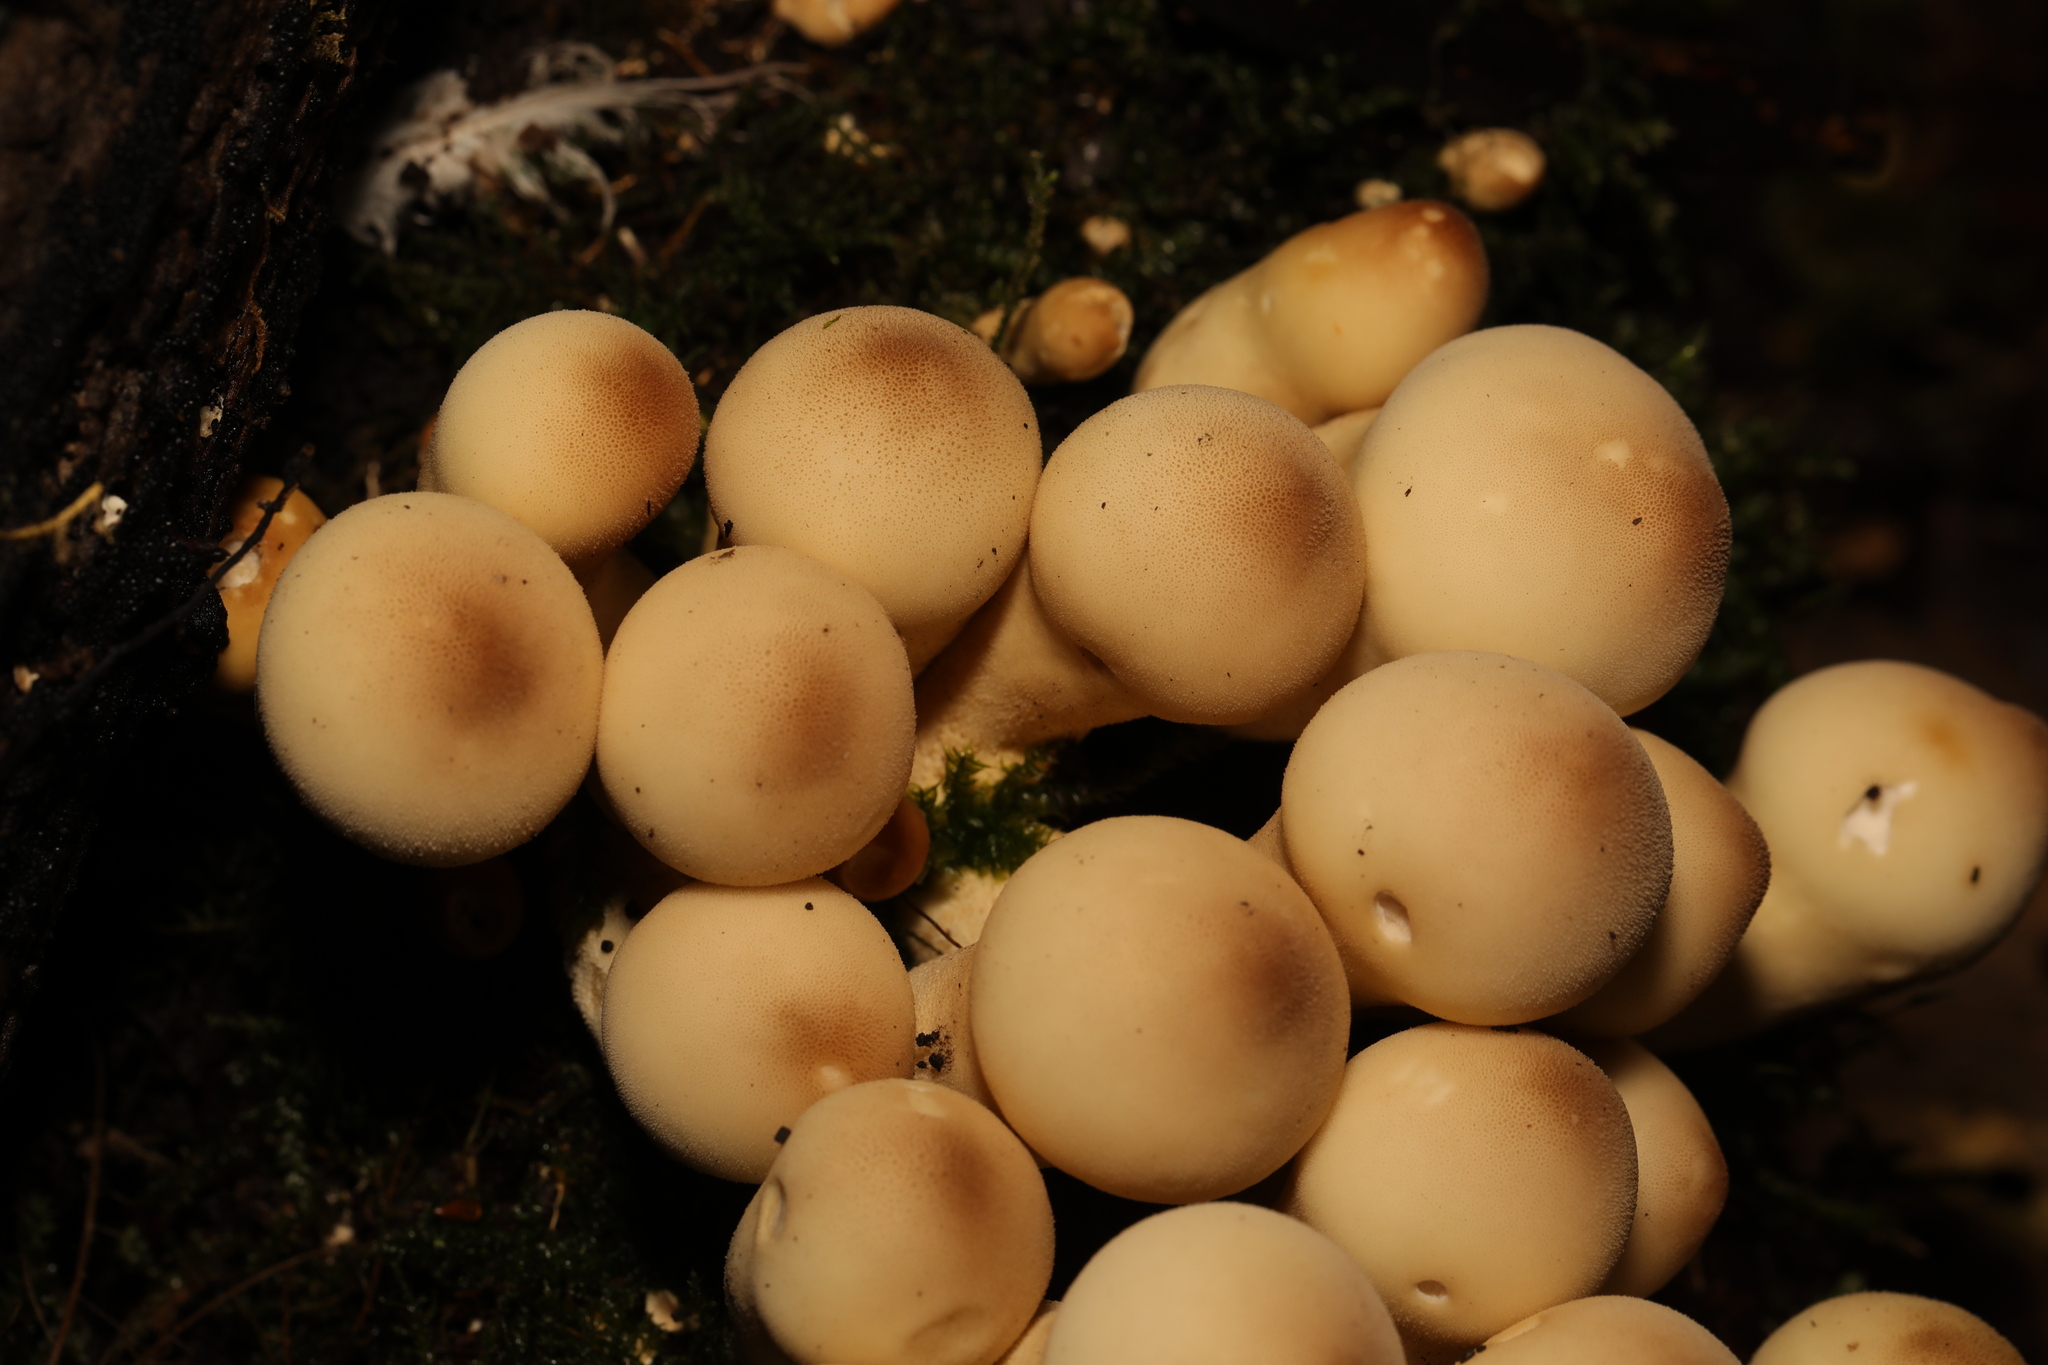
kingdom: Fungi
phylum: Basidiomycota
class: Agaricomycetes
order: Agaricales
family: Lycoperdaceae
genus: Apioperdon
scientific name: Apioperdon pyriforme
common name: Pear-shaped puffball
